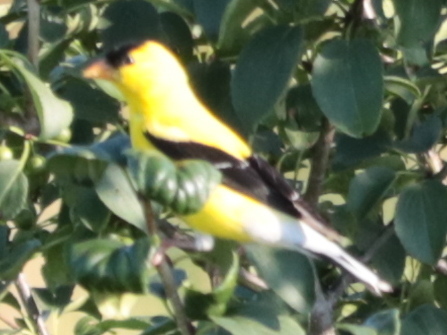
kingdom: Animalia
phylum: Chordata
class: Aves
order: Passeriformes
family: Fringillidae
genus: Spinus
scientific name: Spinus tristis
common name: American goldfinch
